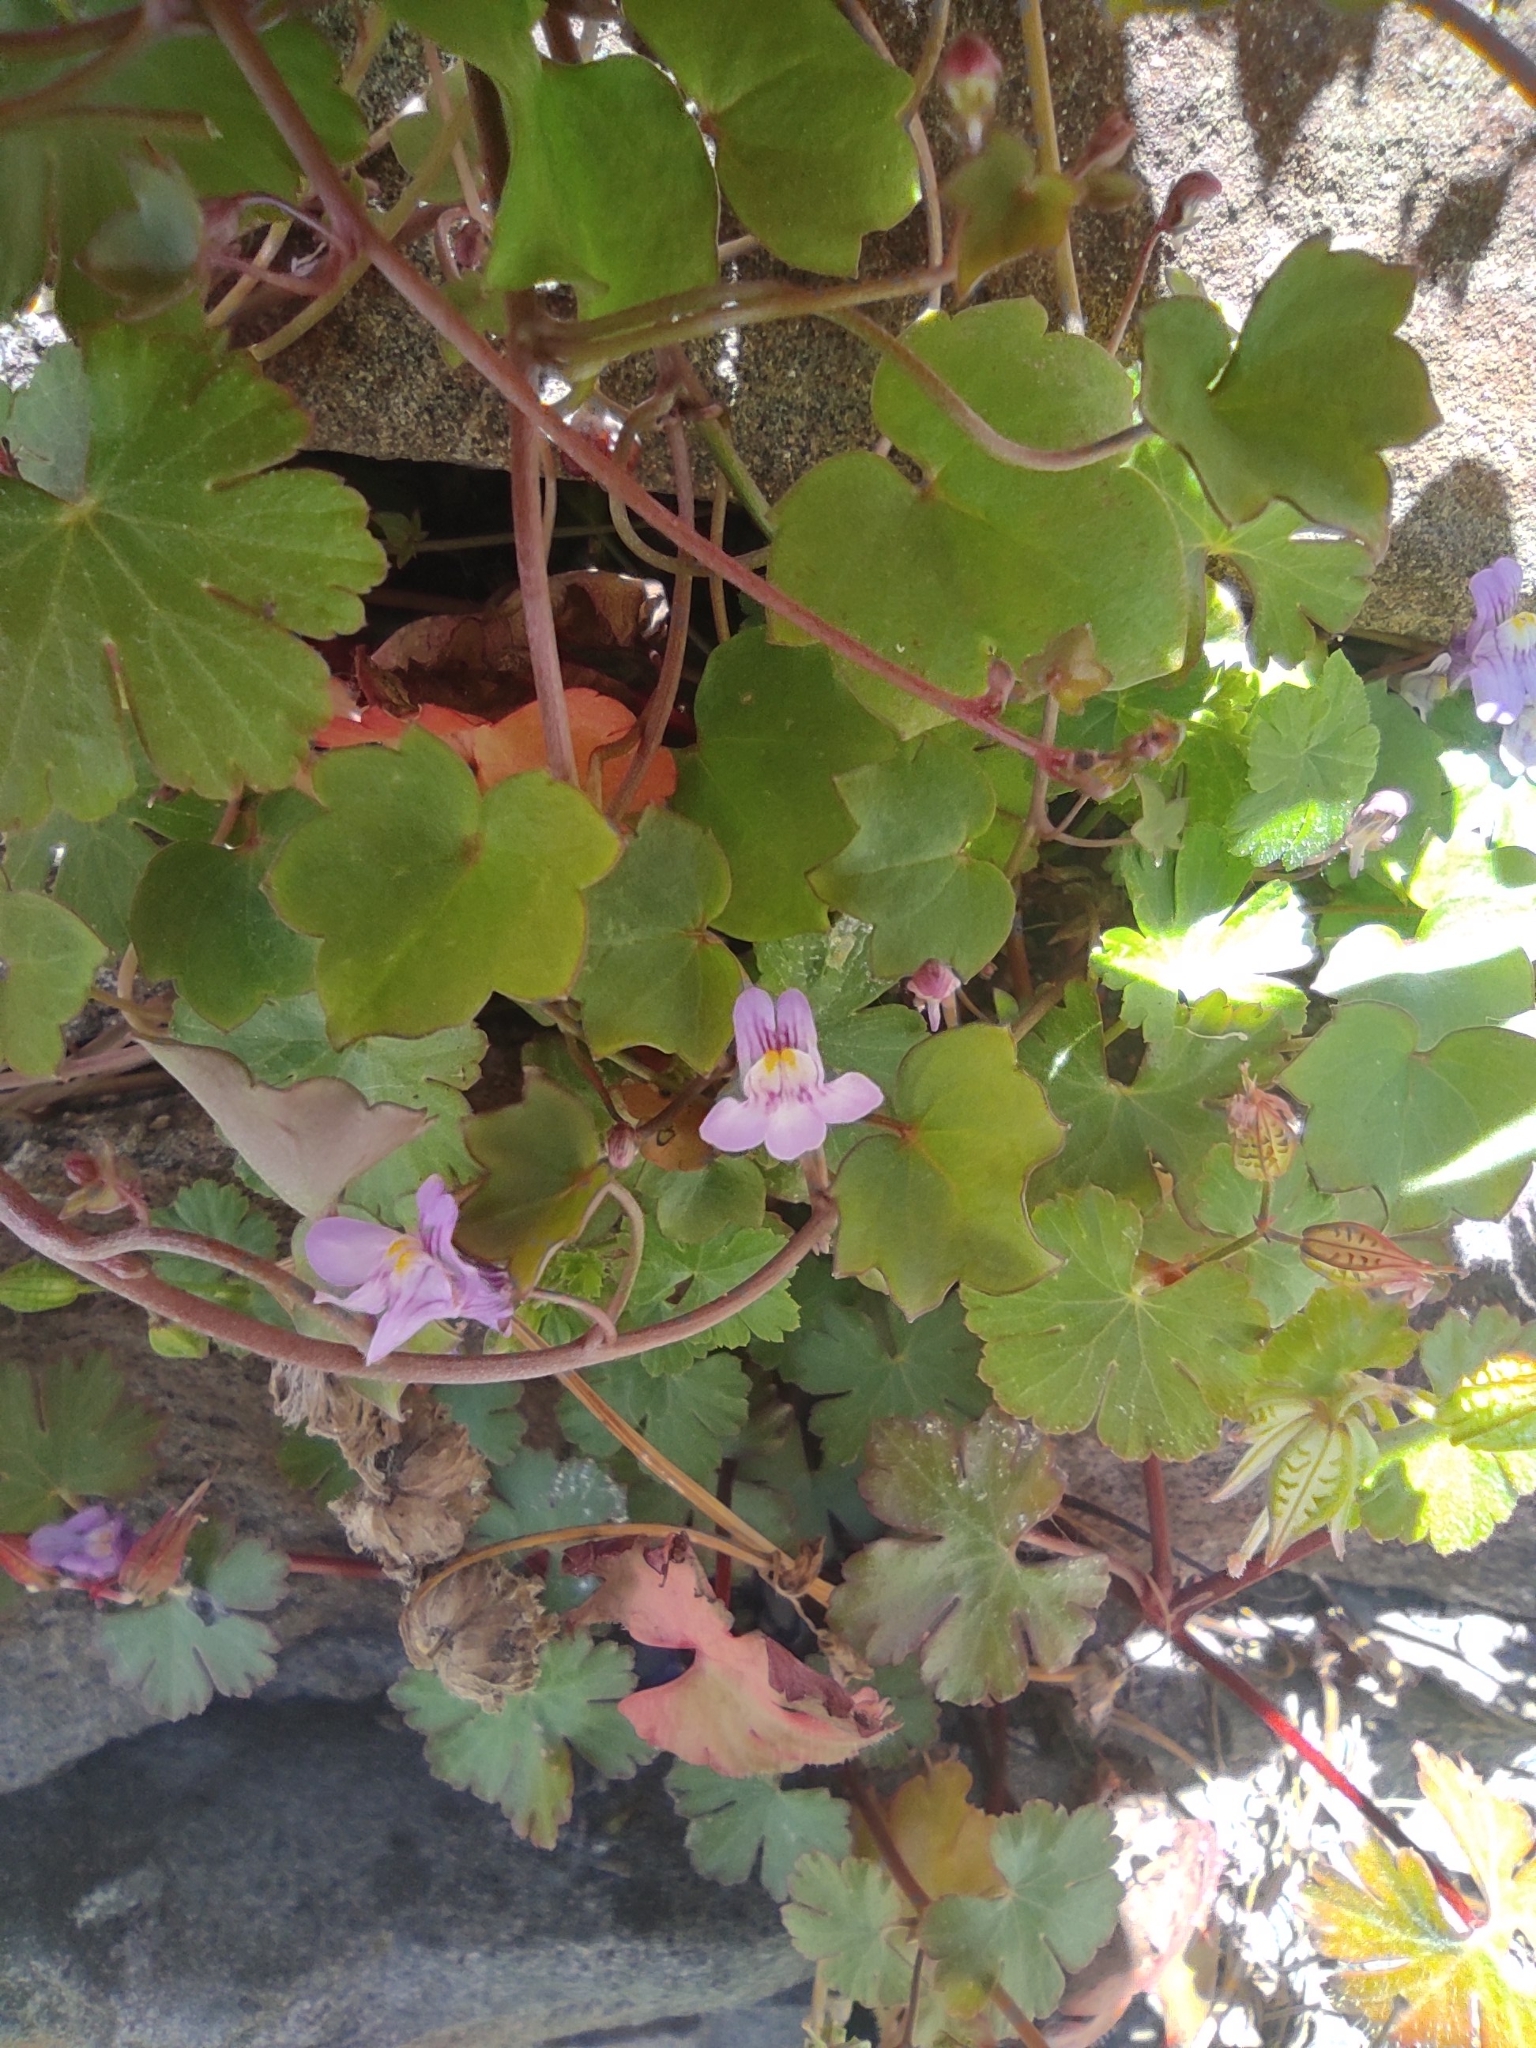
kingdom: Plantae
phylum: Tracheophyta
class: Magnoliopsida
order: Lamiales
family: Plantaginaceae
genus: Cymbalaria
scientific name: Cymbalaria muralis
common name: Ivy-leaved toadflax
